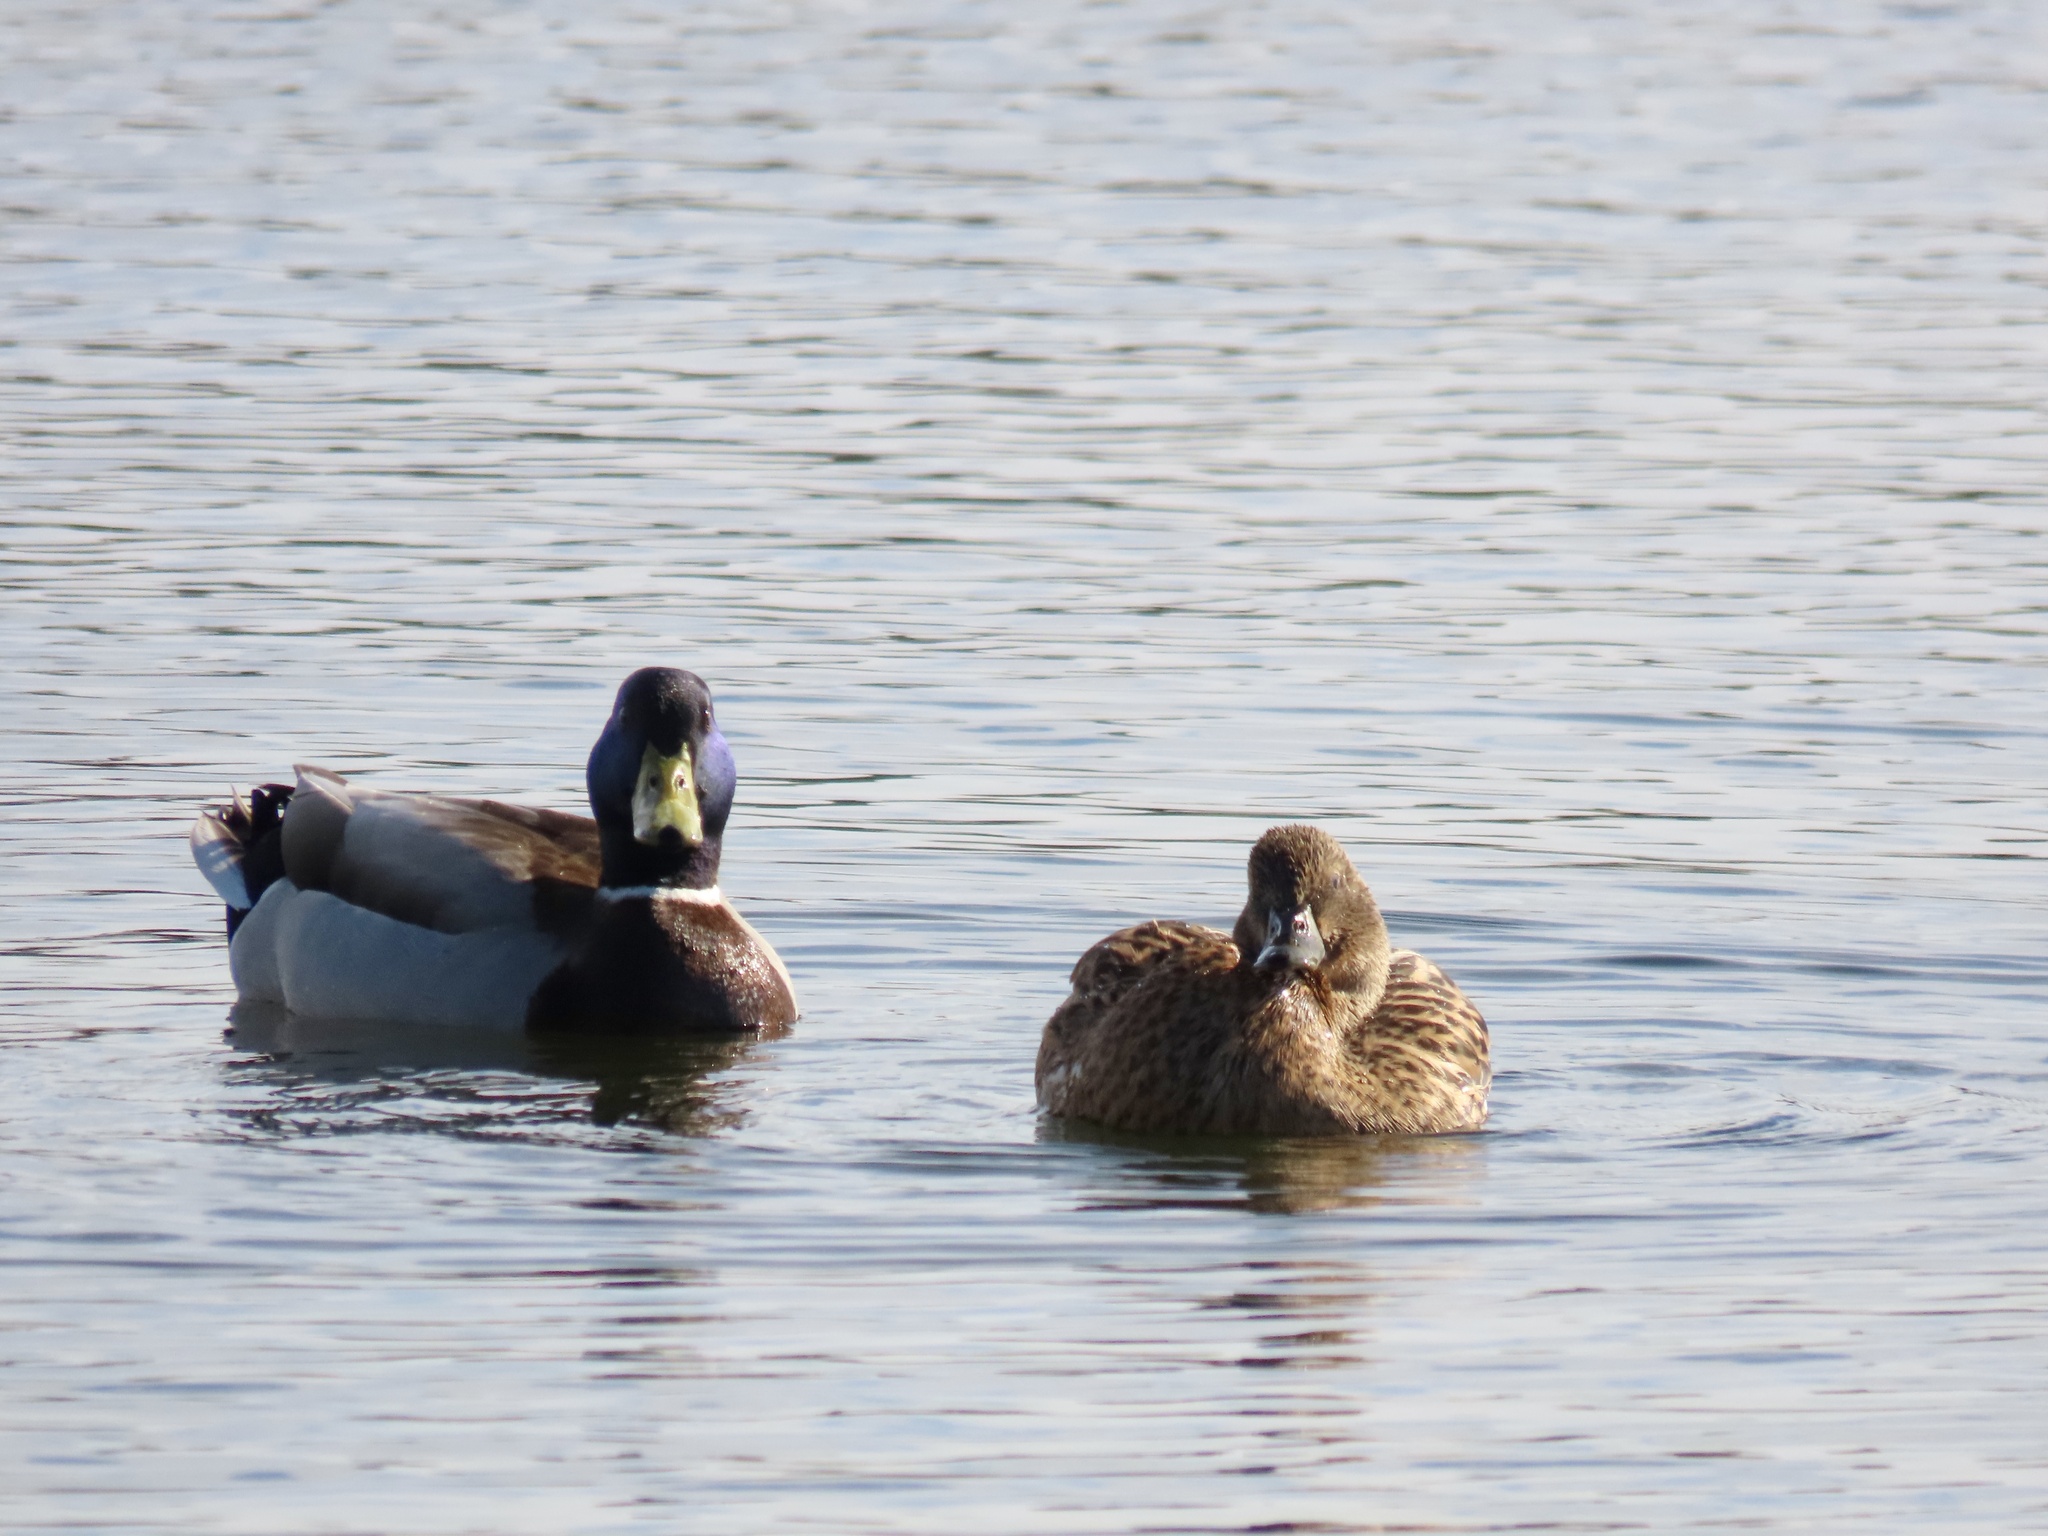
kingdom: Animalia
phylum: Chordata
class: Aves
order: Anseriformes
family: Anatidae
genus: Anas
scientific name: Anas platyrhynchos
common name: Mallard
